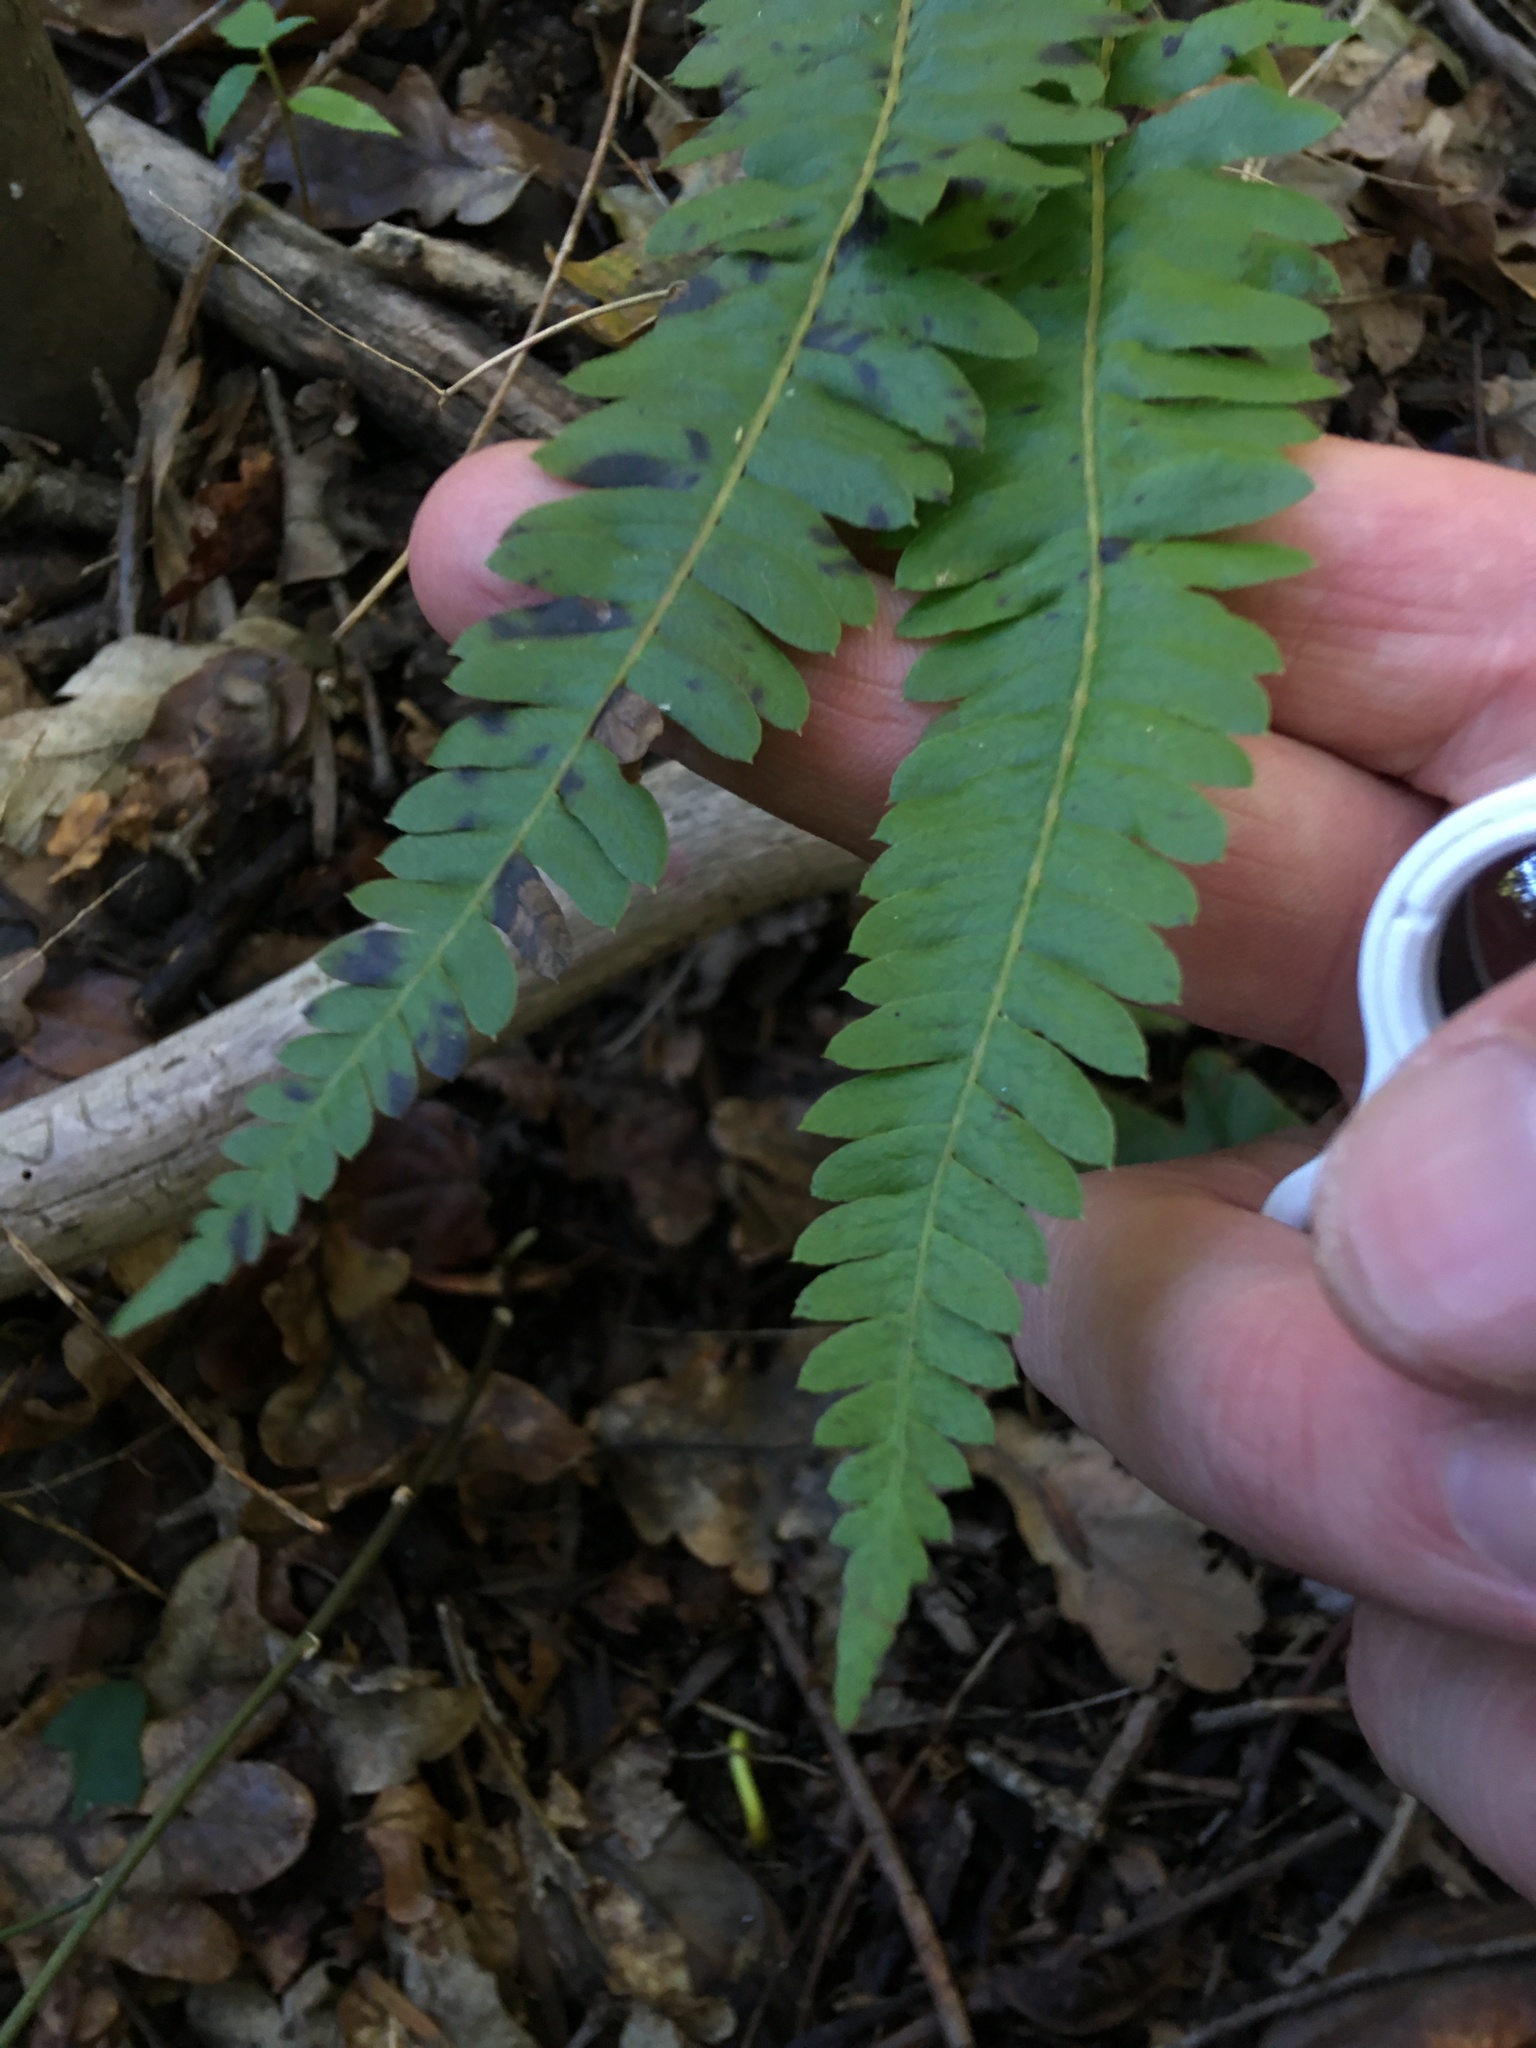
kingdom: Plantae
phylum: Tracheophyta
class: Polypodiopsida
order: Polypodiales
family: Blechnaceae
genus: Blechnum
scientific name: Blechnum australe
